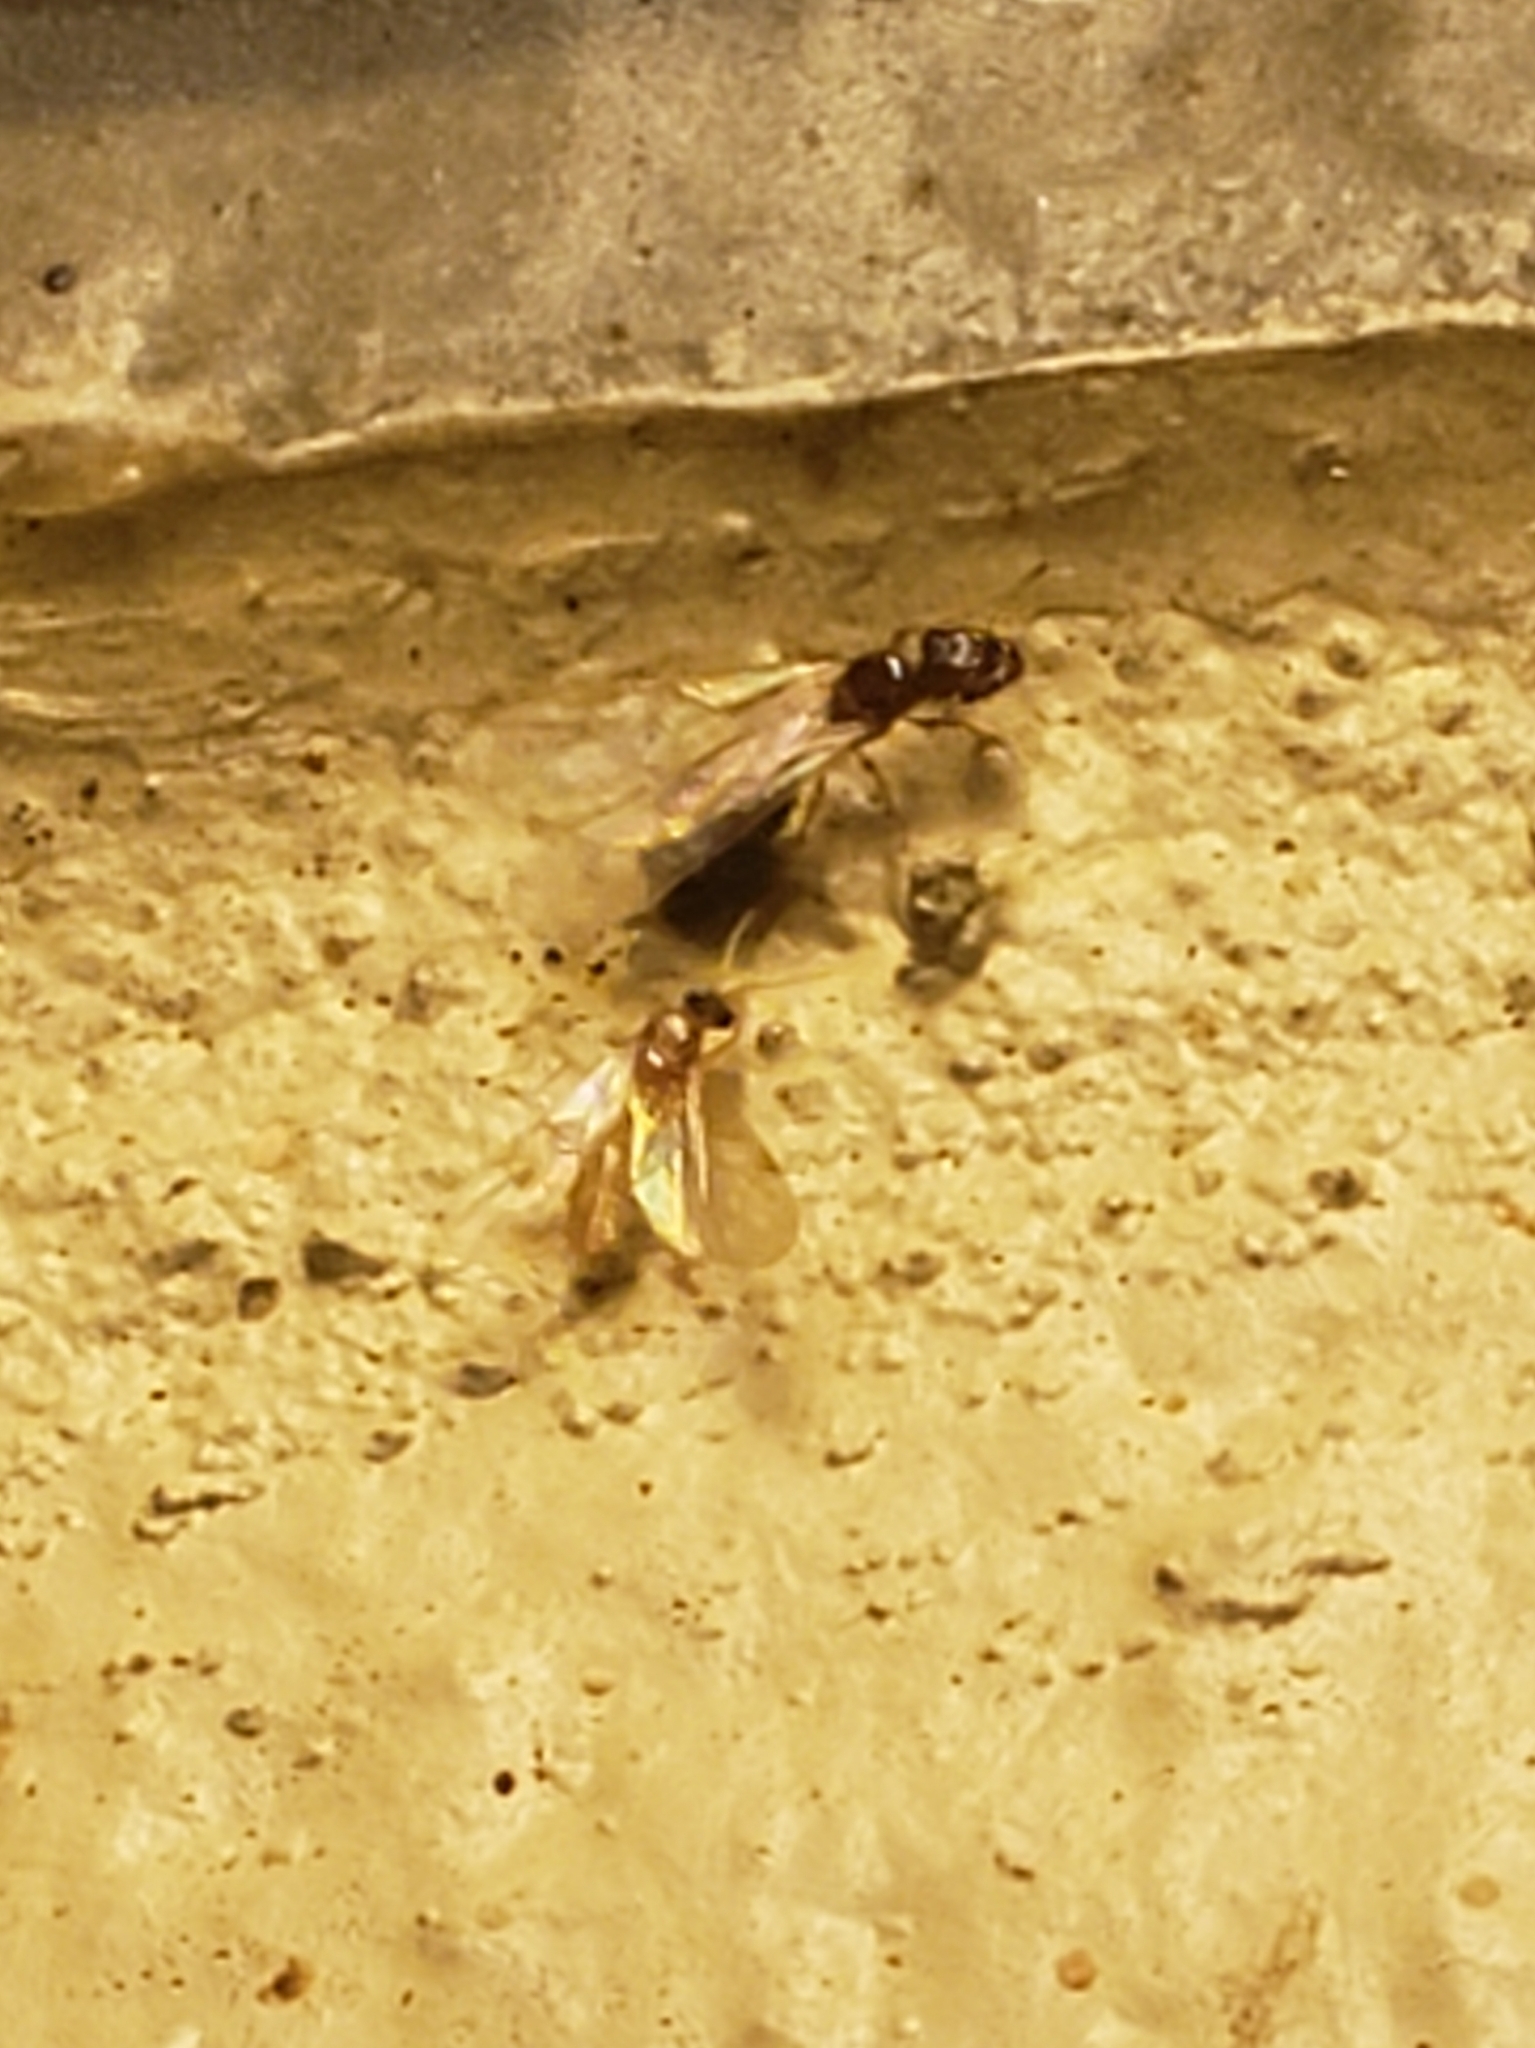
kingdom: Animalia
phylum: Arthropoda
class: Insecta
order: Hymenoptera
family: Formicidae
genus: Pheidole
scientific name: Pheidole parva
